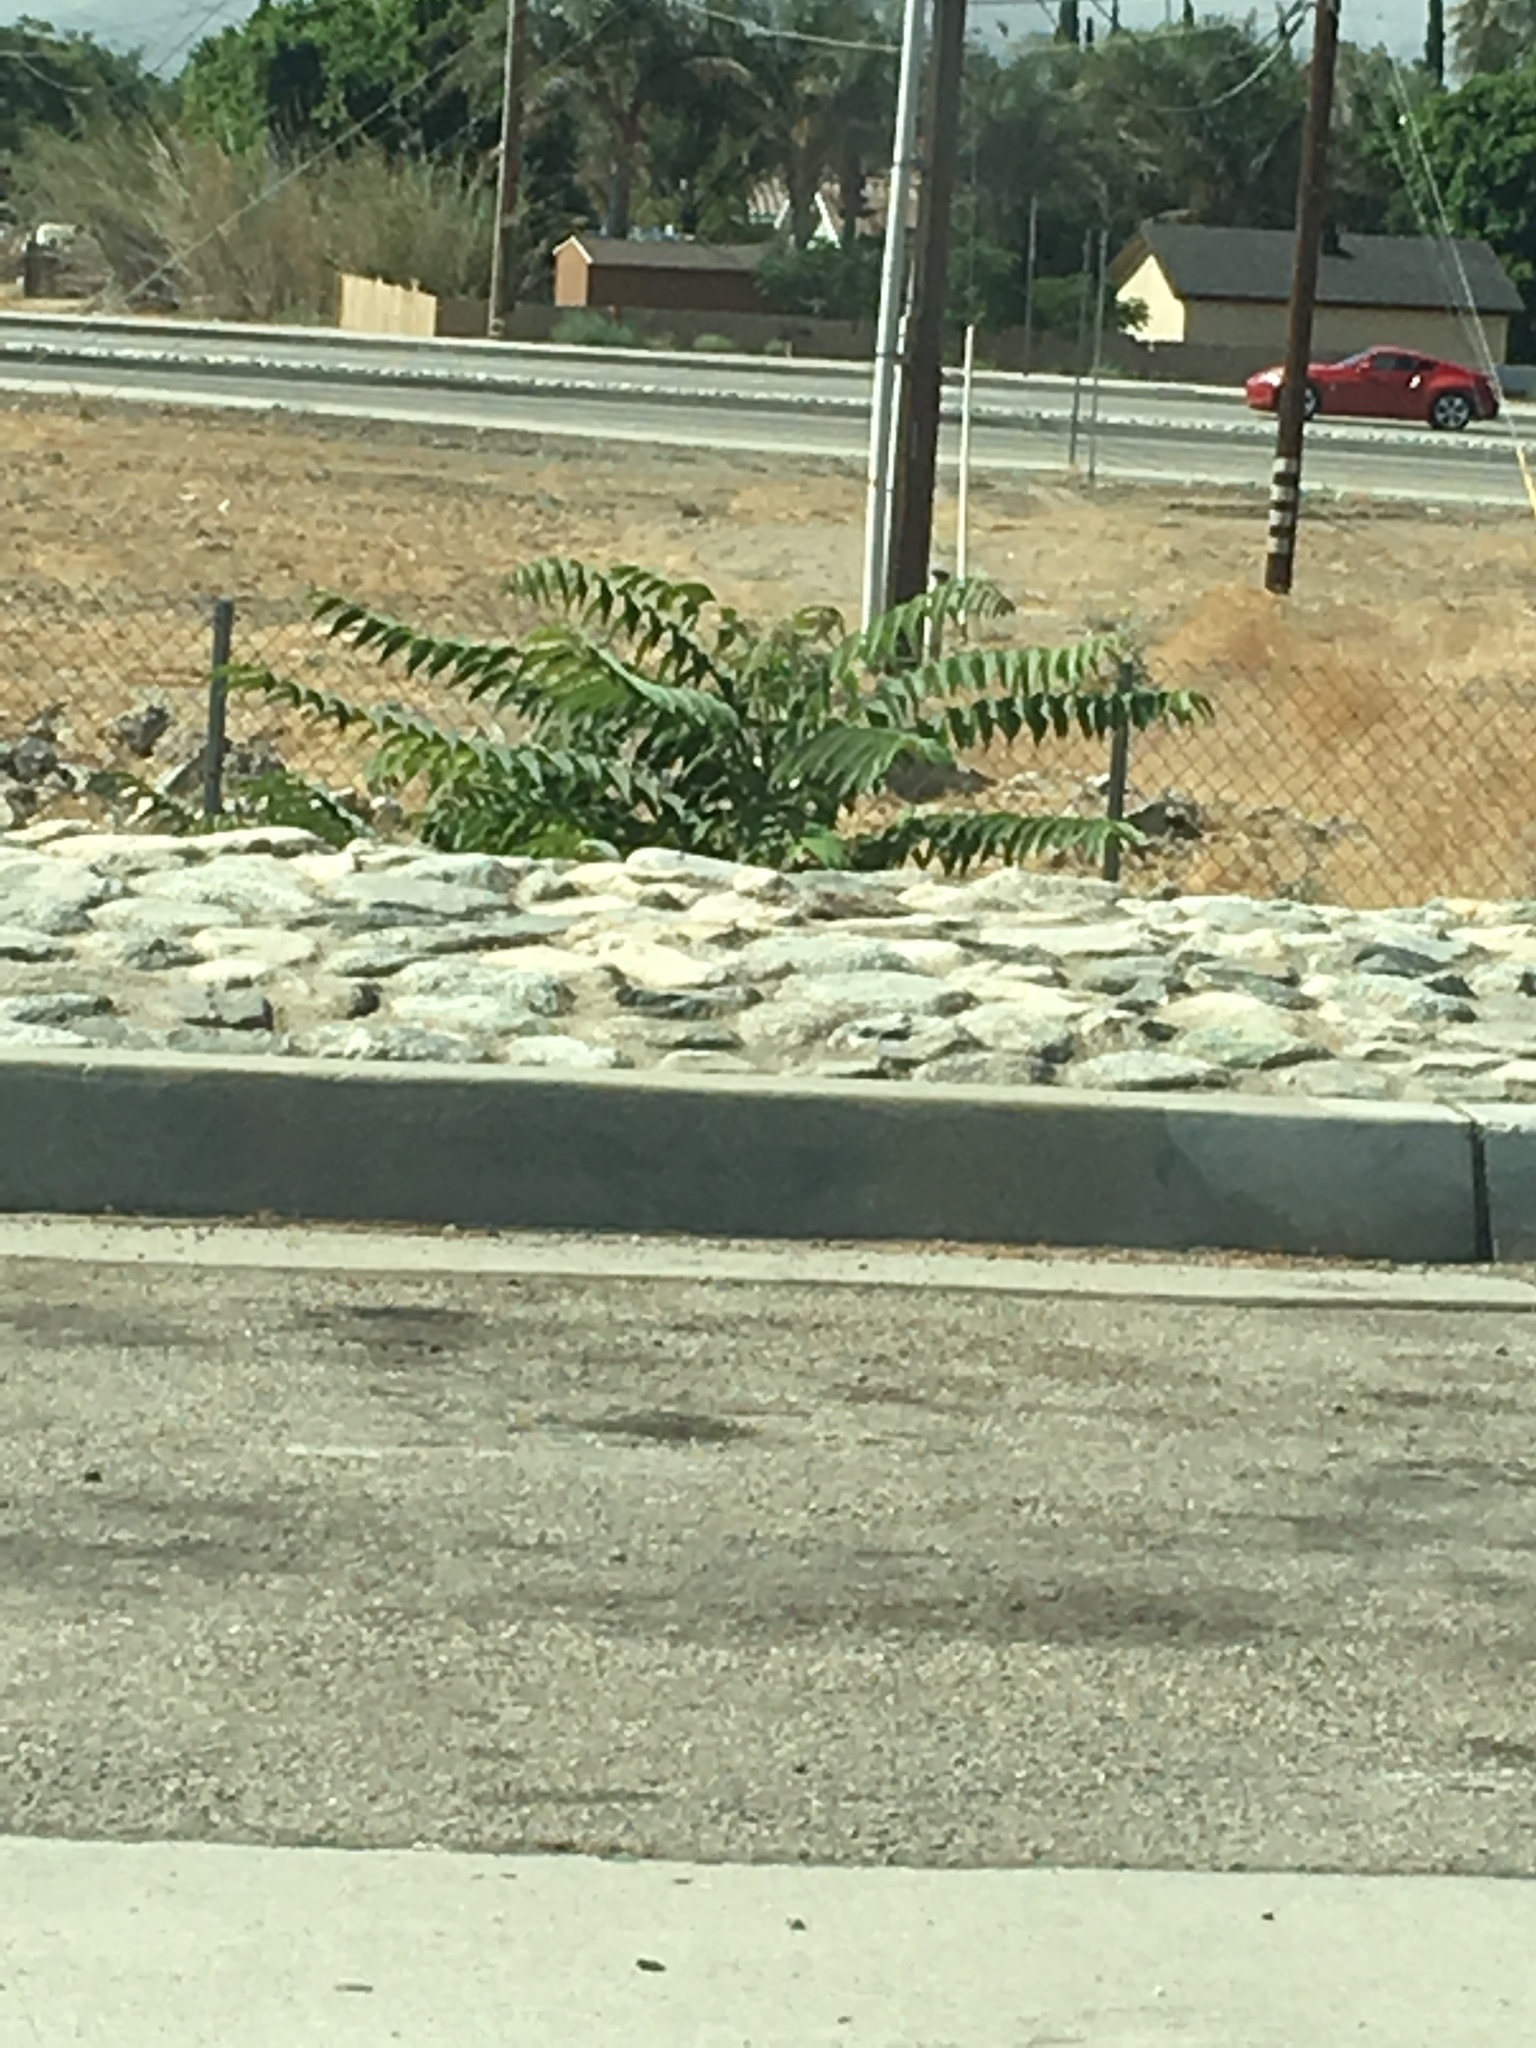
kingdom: Plantae
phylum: Tracheophyta
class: Magnoliopsida
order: Sapindales
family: Simaroubaceae
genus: Ailanthus
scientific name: Ailanthus altissima
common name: Tree-of-heaven
